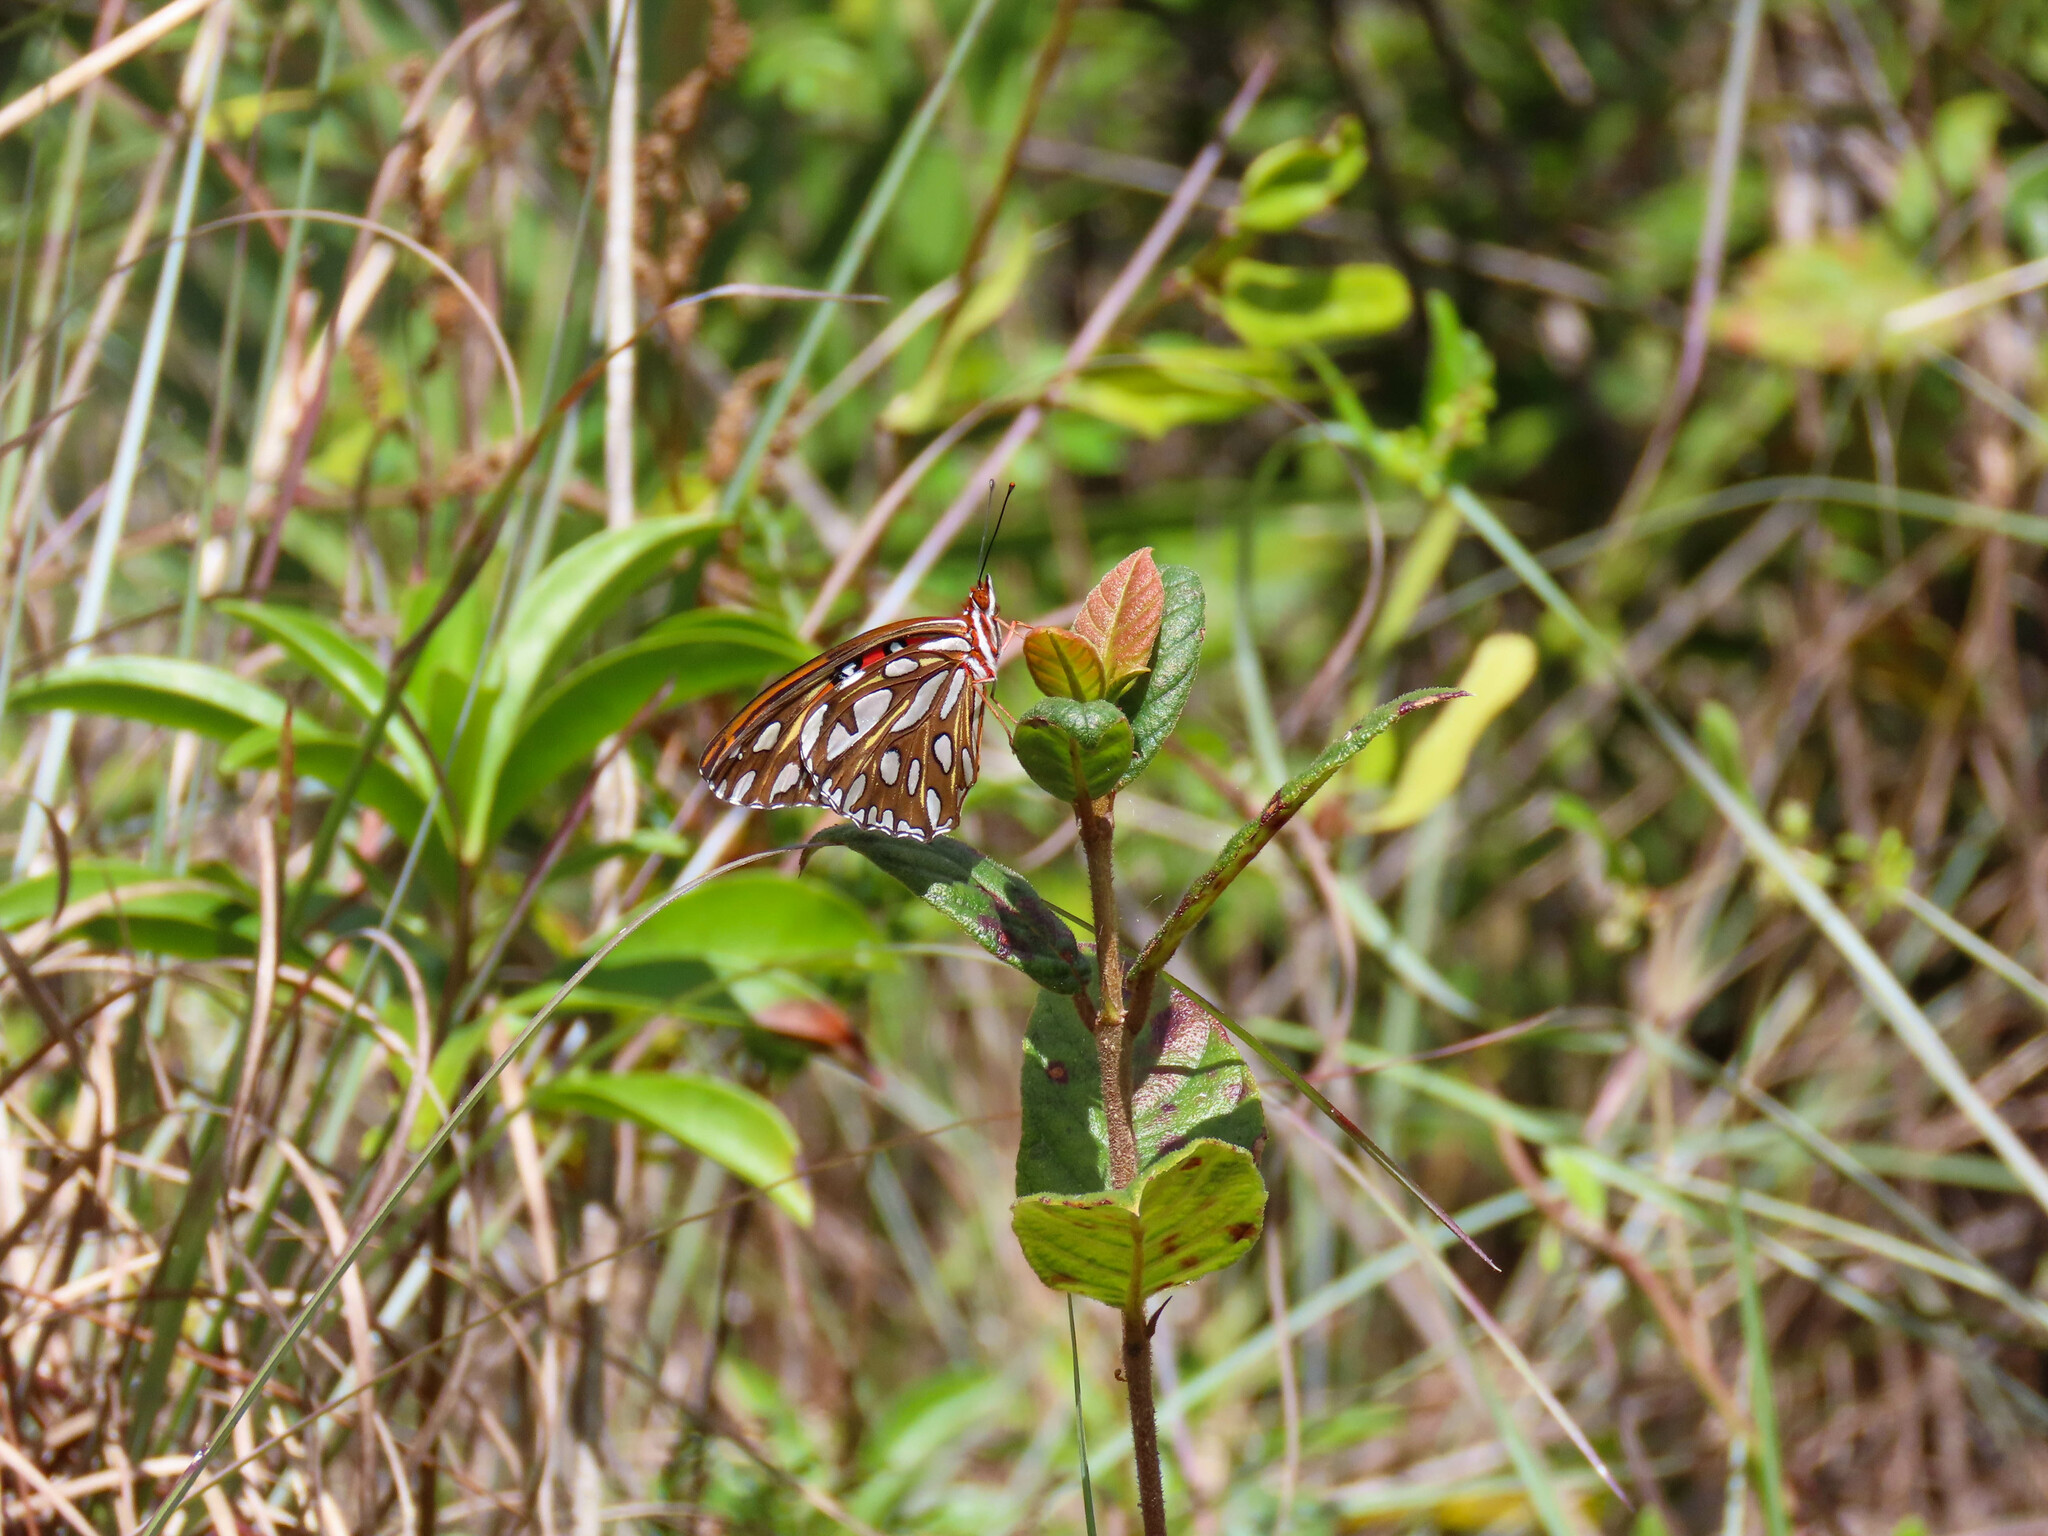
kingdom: Animalia
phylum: Arthropoda
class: Insecta
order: Lepidoptera
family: Nymphalidae
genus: Dione
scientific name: Dione vanillae
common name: Gulf fritillary
